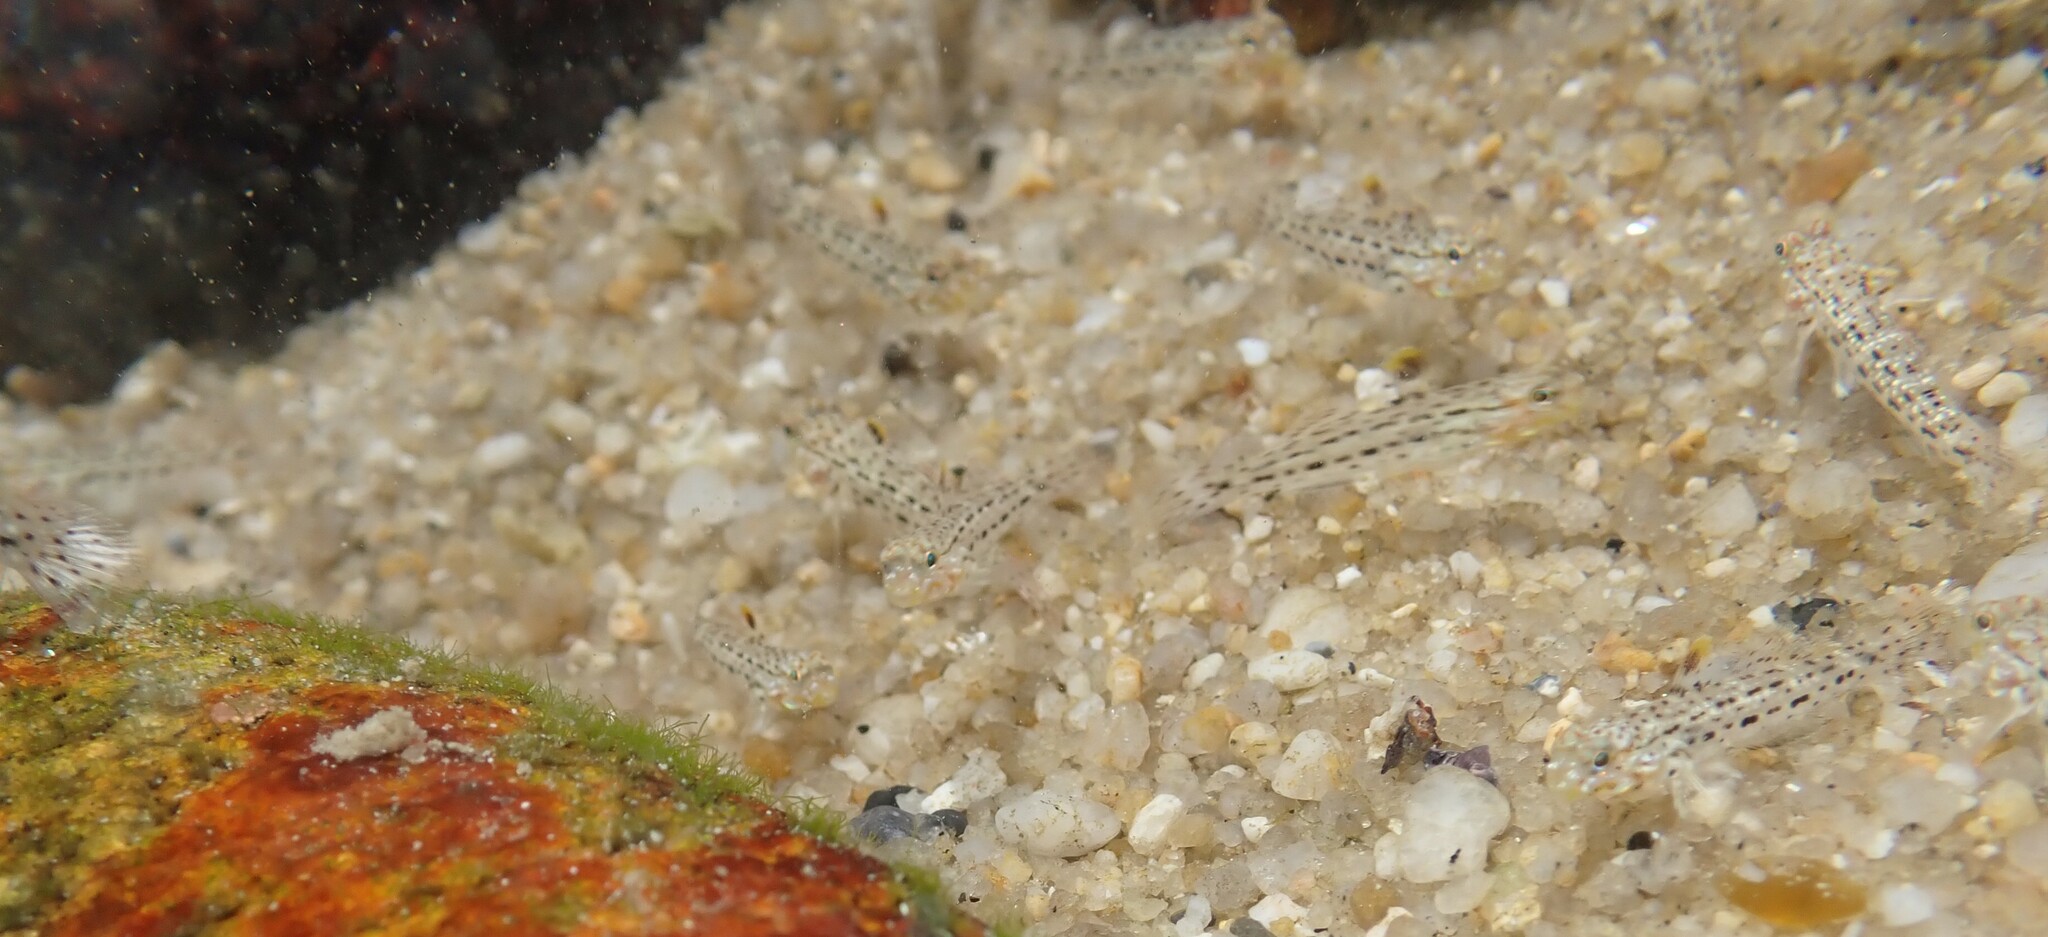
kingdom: Animalia
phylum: Chordata
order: Perciformes
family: Gobiidae
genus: Istigobius
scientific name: Istigobius ornatus
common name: Ornate goby
